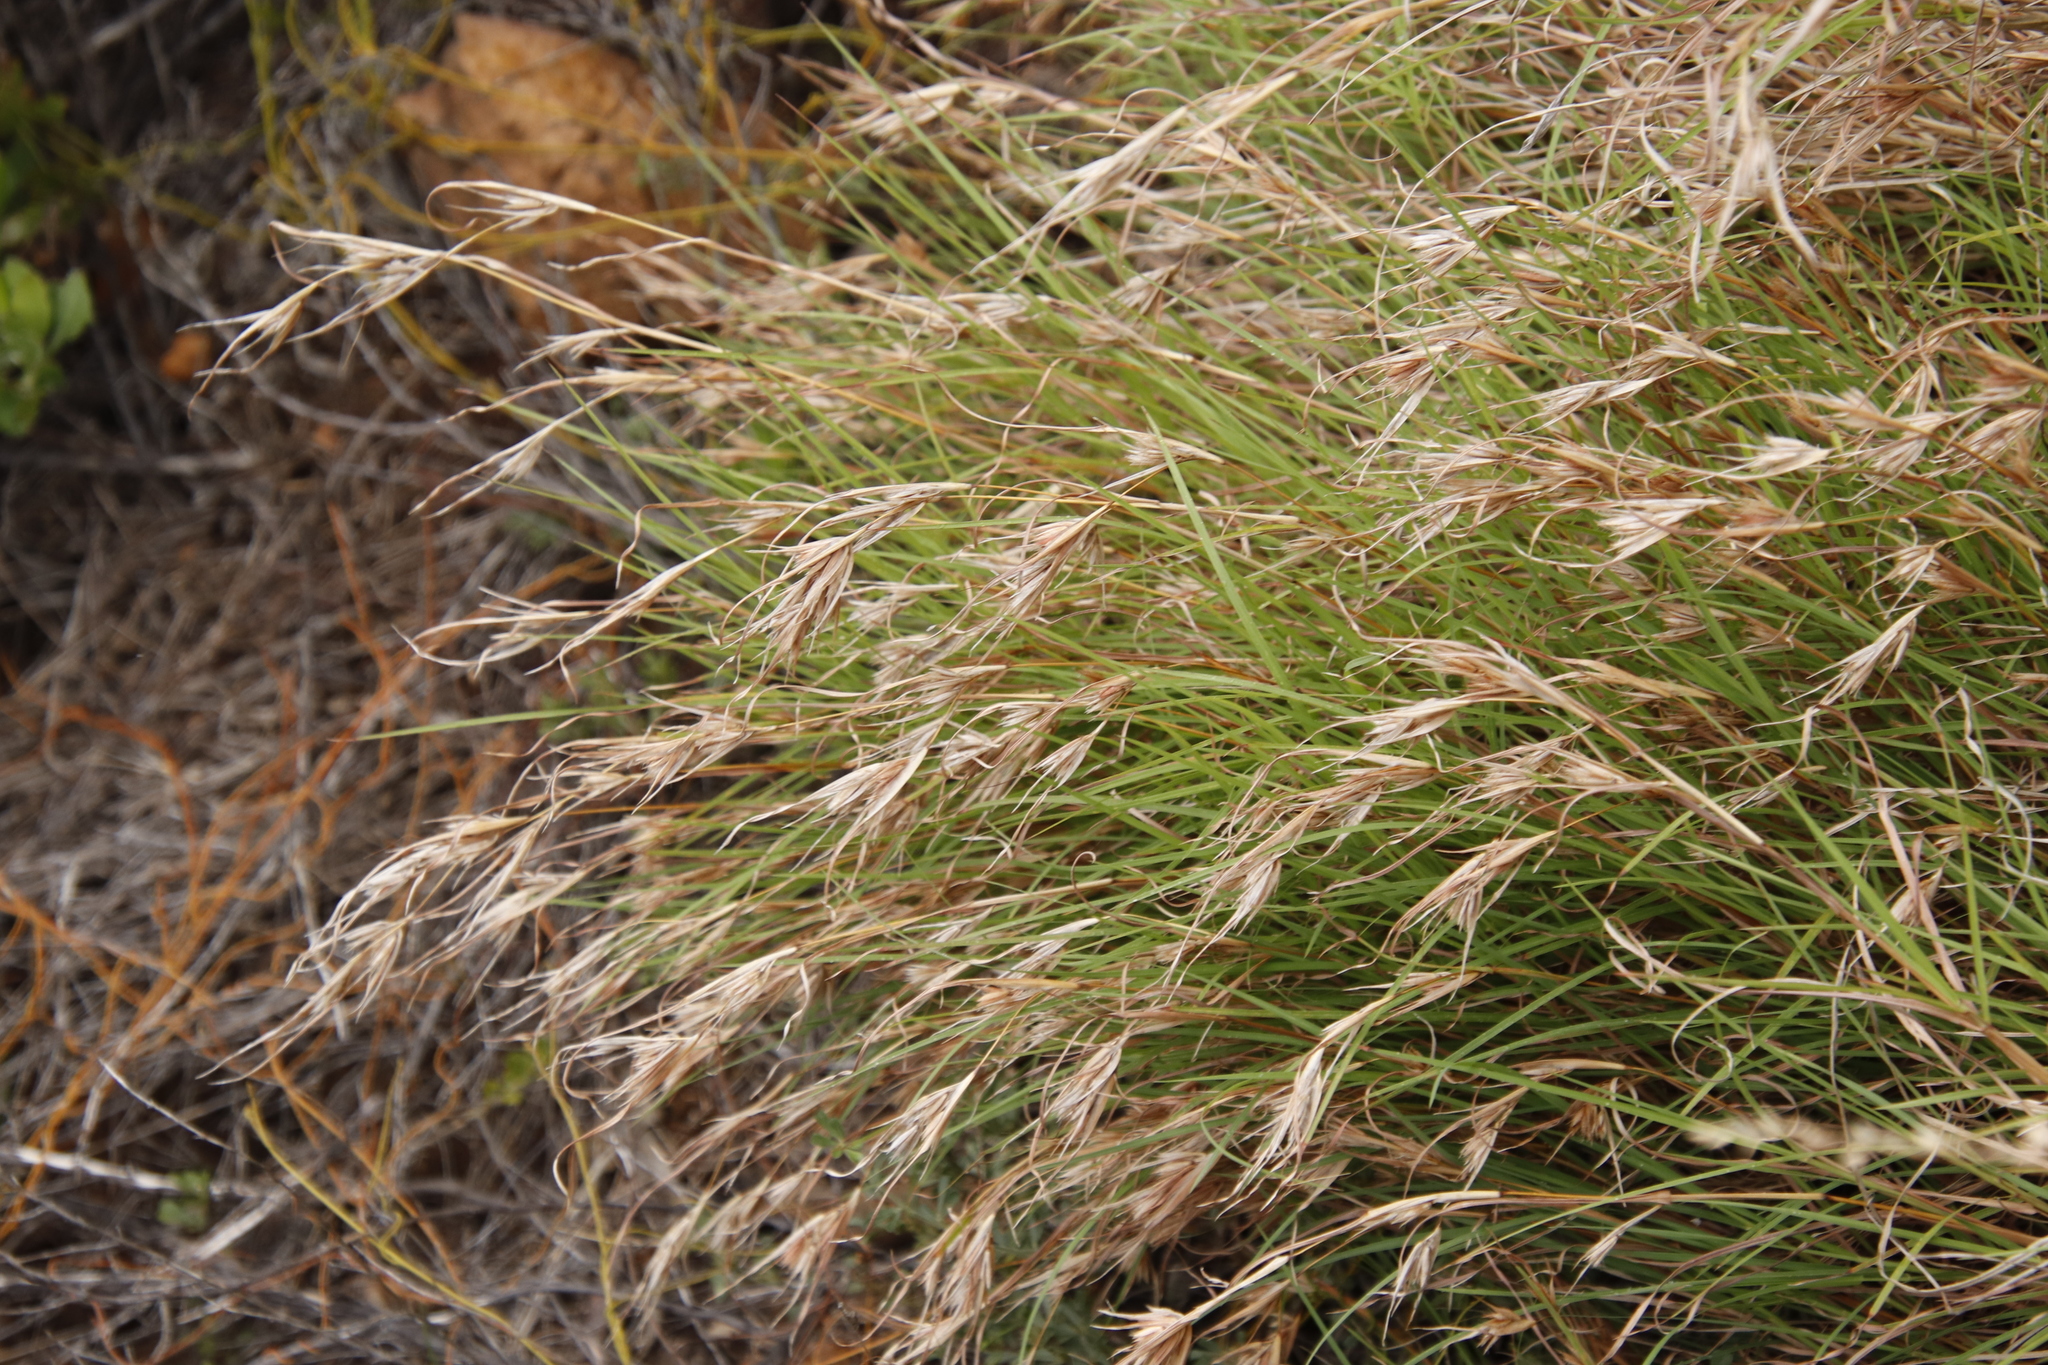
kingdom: Plantae
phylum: Tracheophyta
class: Liliopsida
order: Poales
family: Poaceae
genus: Themeda
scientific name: Themeda triandra
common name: Kangaroo grass
